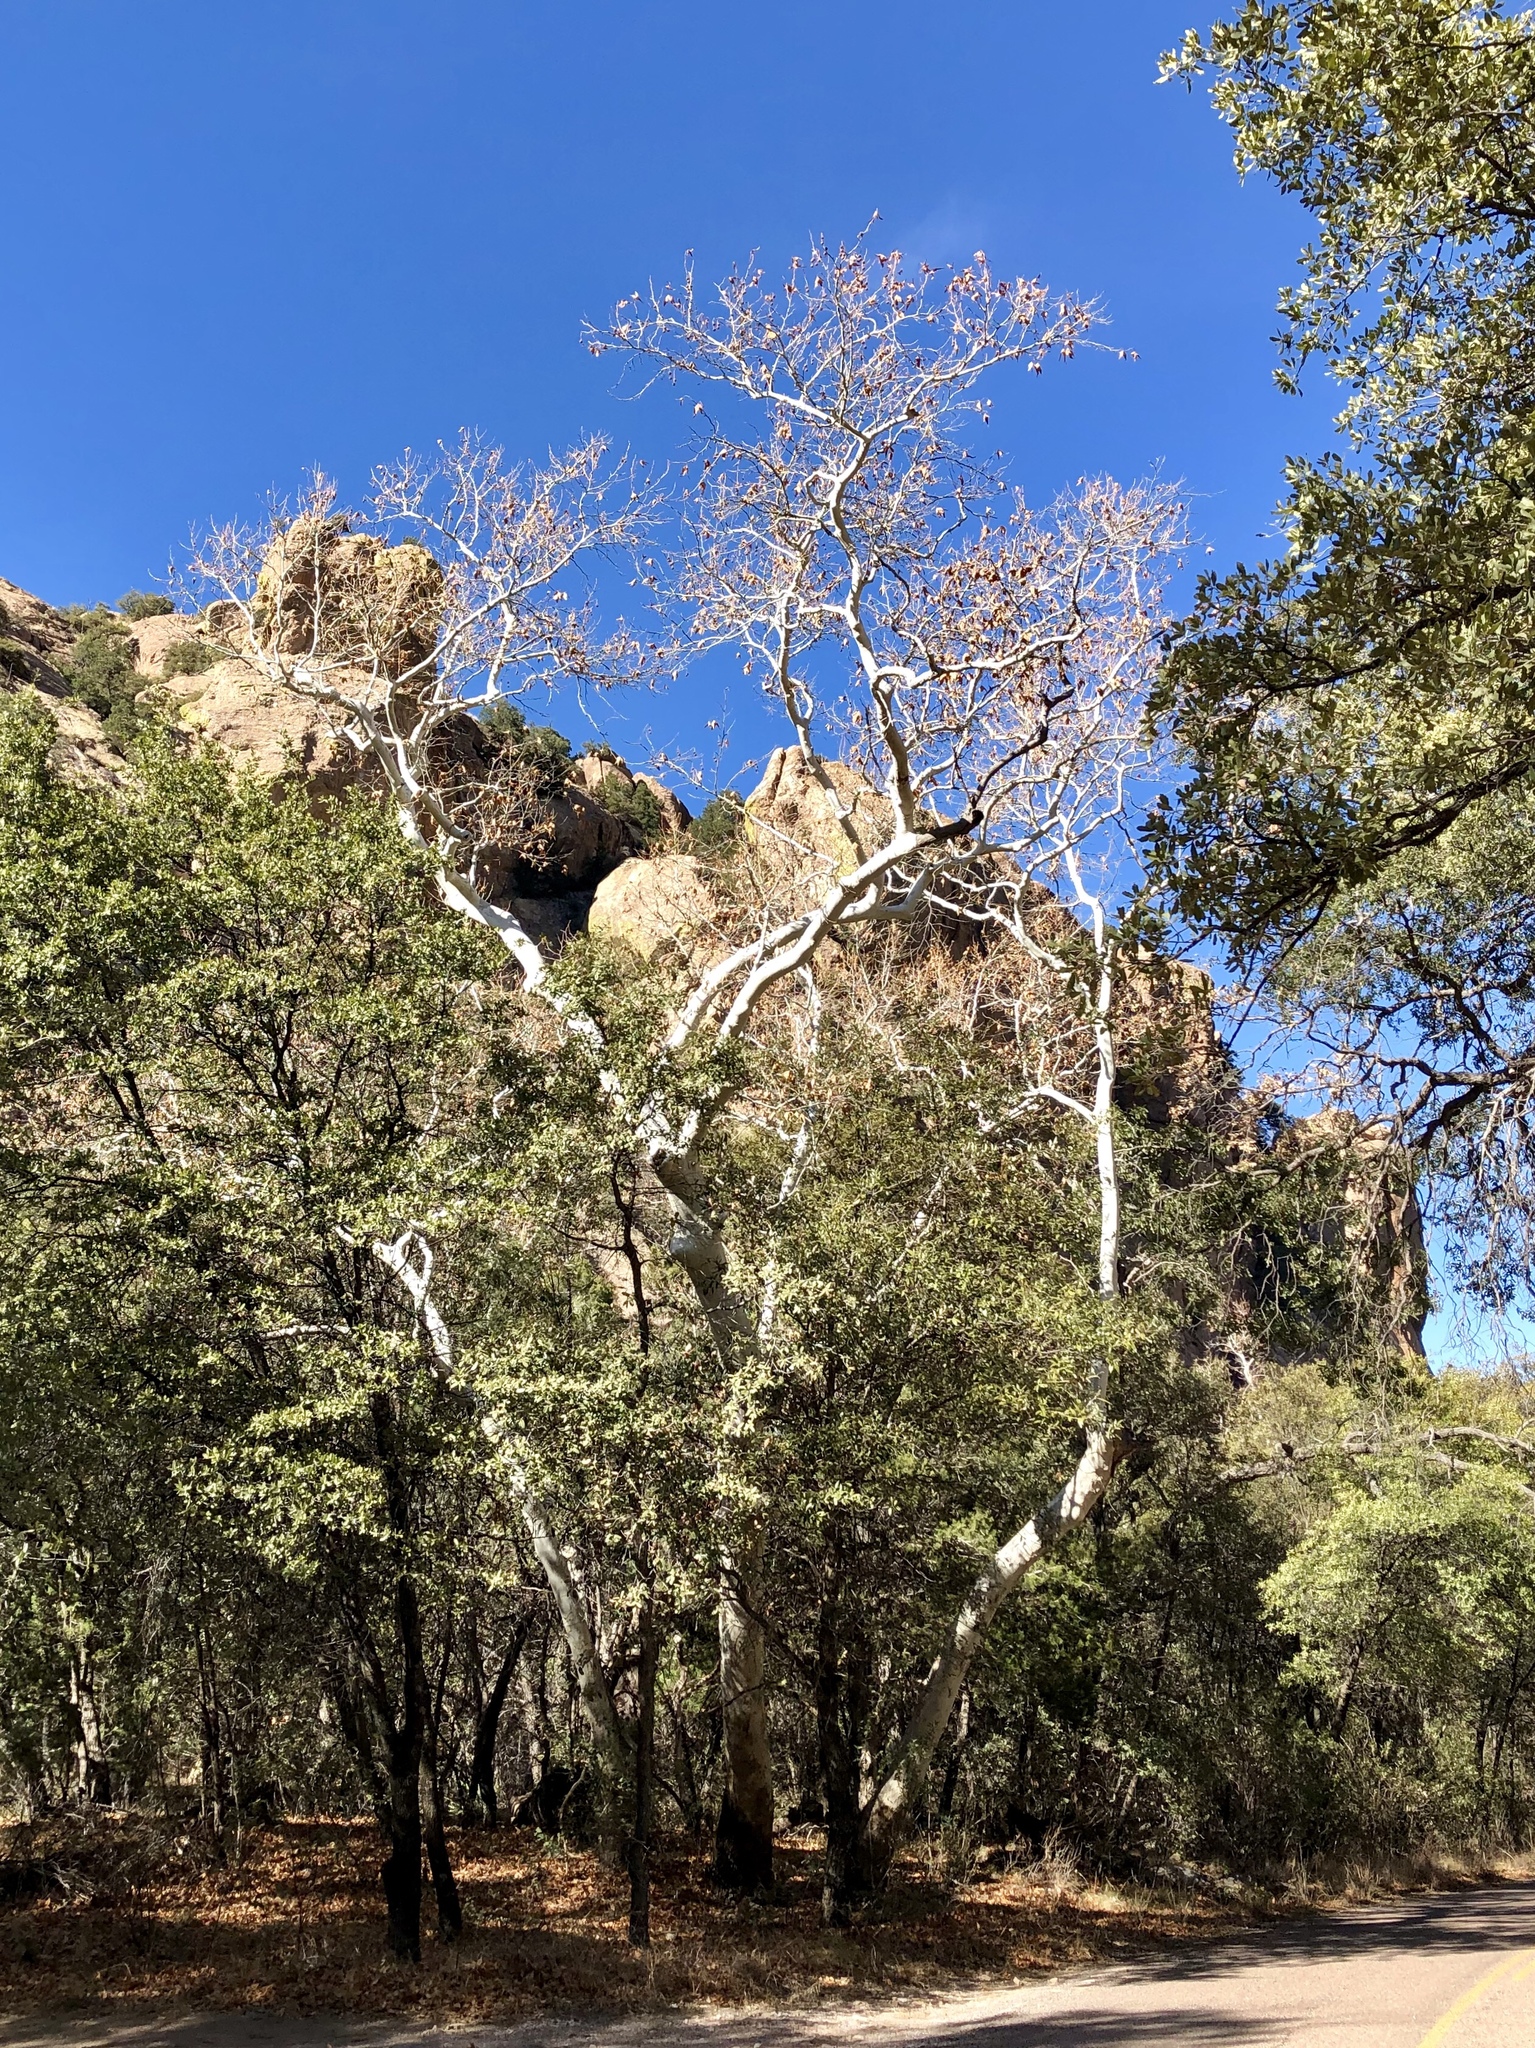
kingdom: Plantae
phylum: Tracheophyta
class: Magnoliopsida
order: Proteales
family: Platanaceae
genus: Platanus
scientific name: Platanus wrightii
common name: Arizona sycamore
